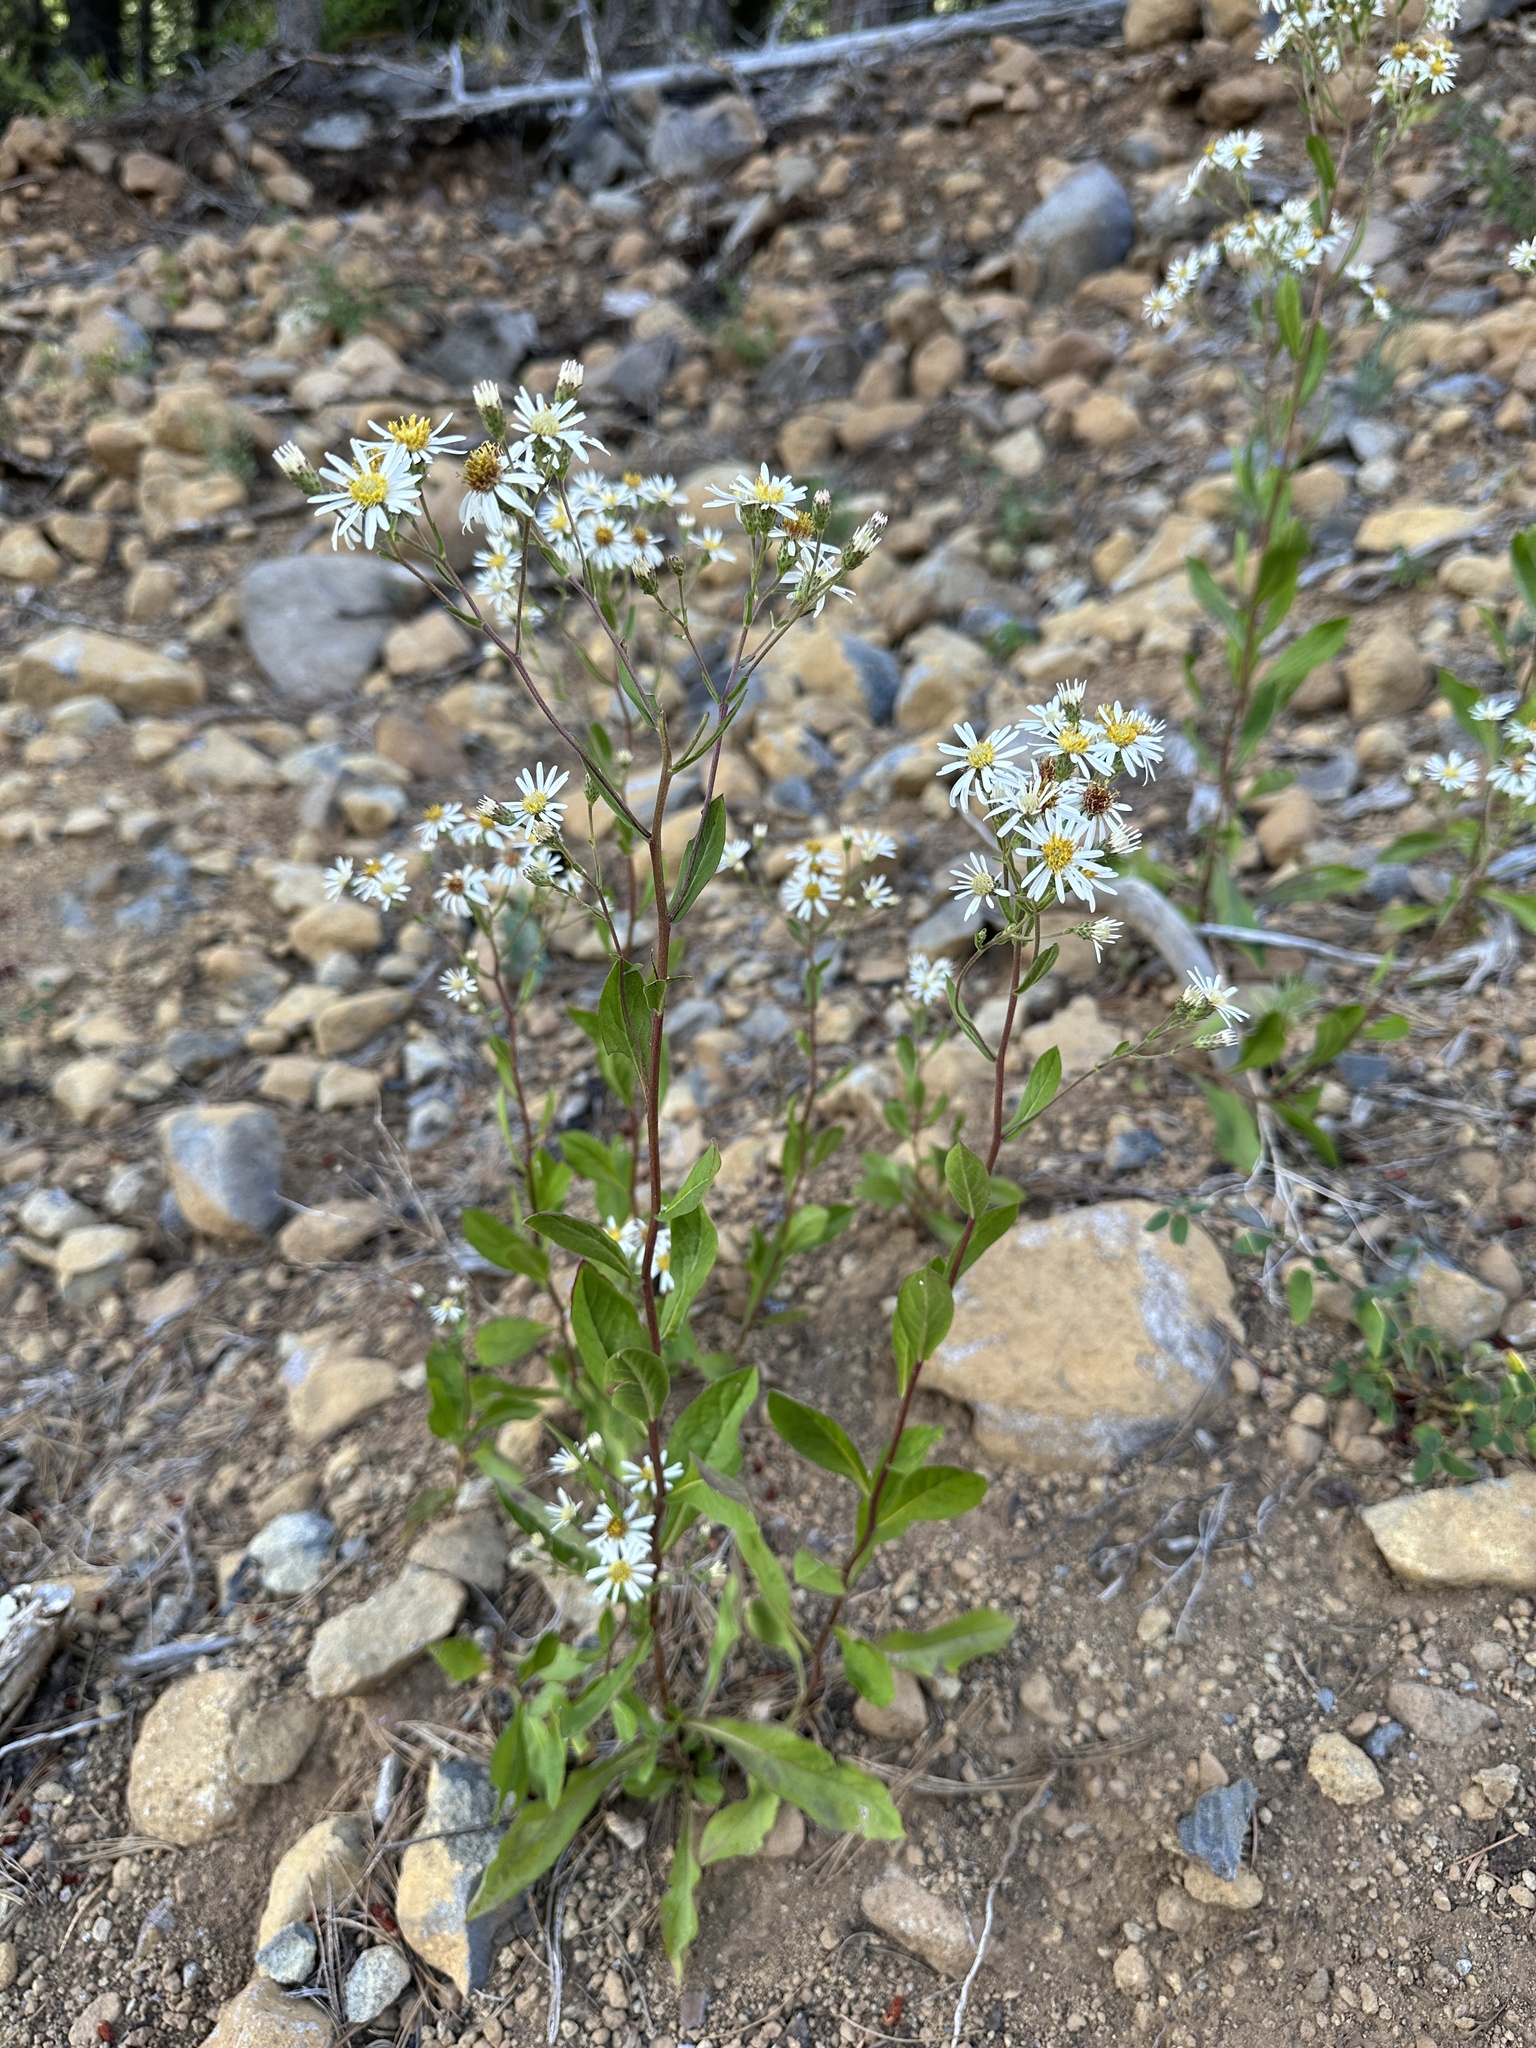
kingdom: Plantae
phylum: Tracheophyta
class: Magnoliopsida
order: Asterales
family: Asteraceae
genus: Eurybia
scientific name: Eurybia radulina
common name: Rough-leaved aster
